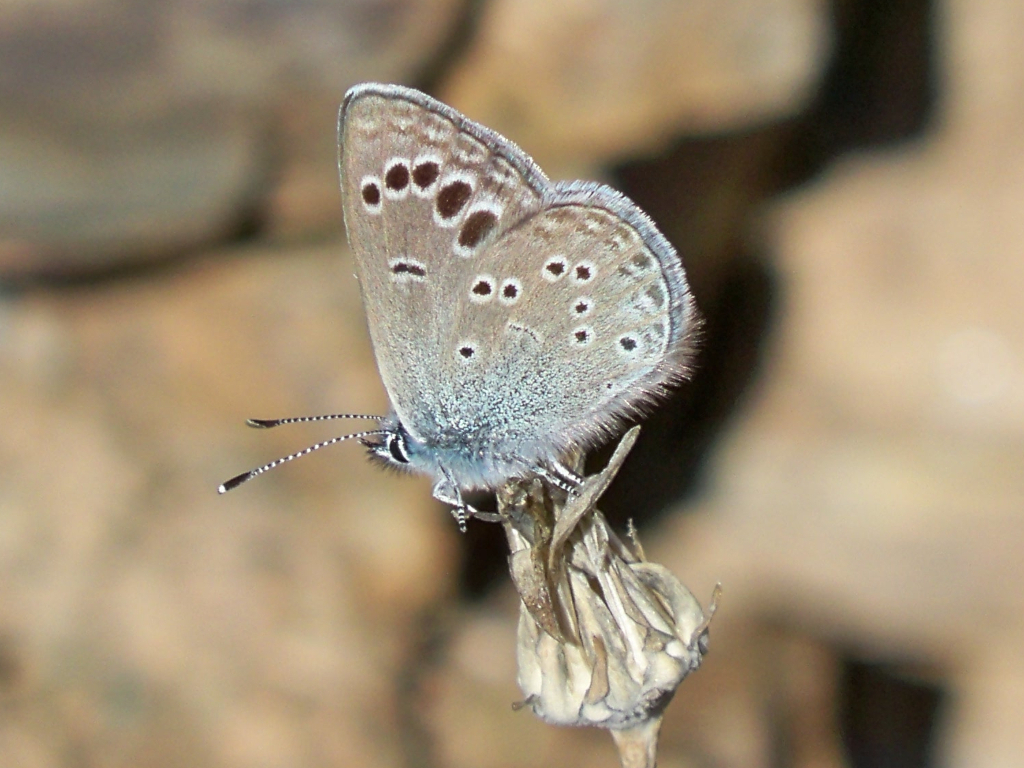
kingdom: Animalia
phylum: Arthropoda
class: Insecta
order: Lepidoptera
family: Lycaenidae
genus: Glaucopsyche
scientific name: Glaucopsyche melanops
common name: Black-eyed blue
